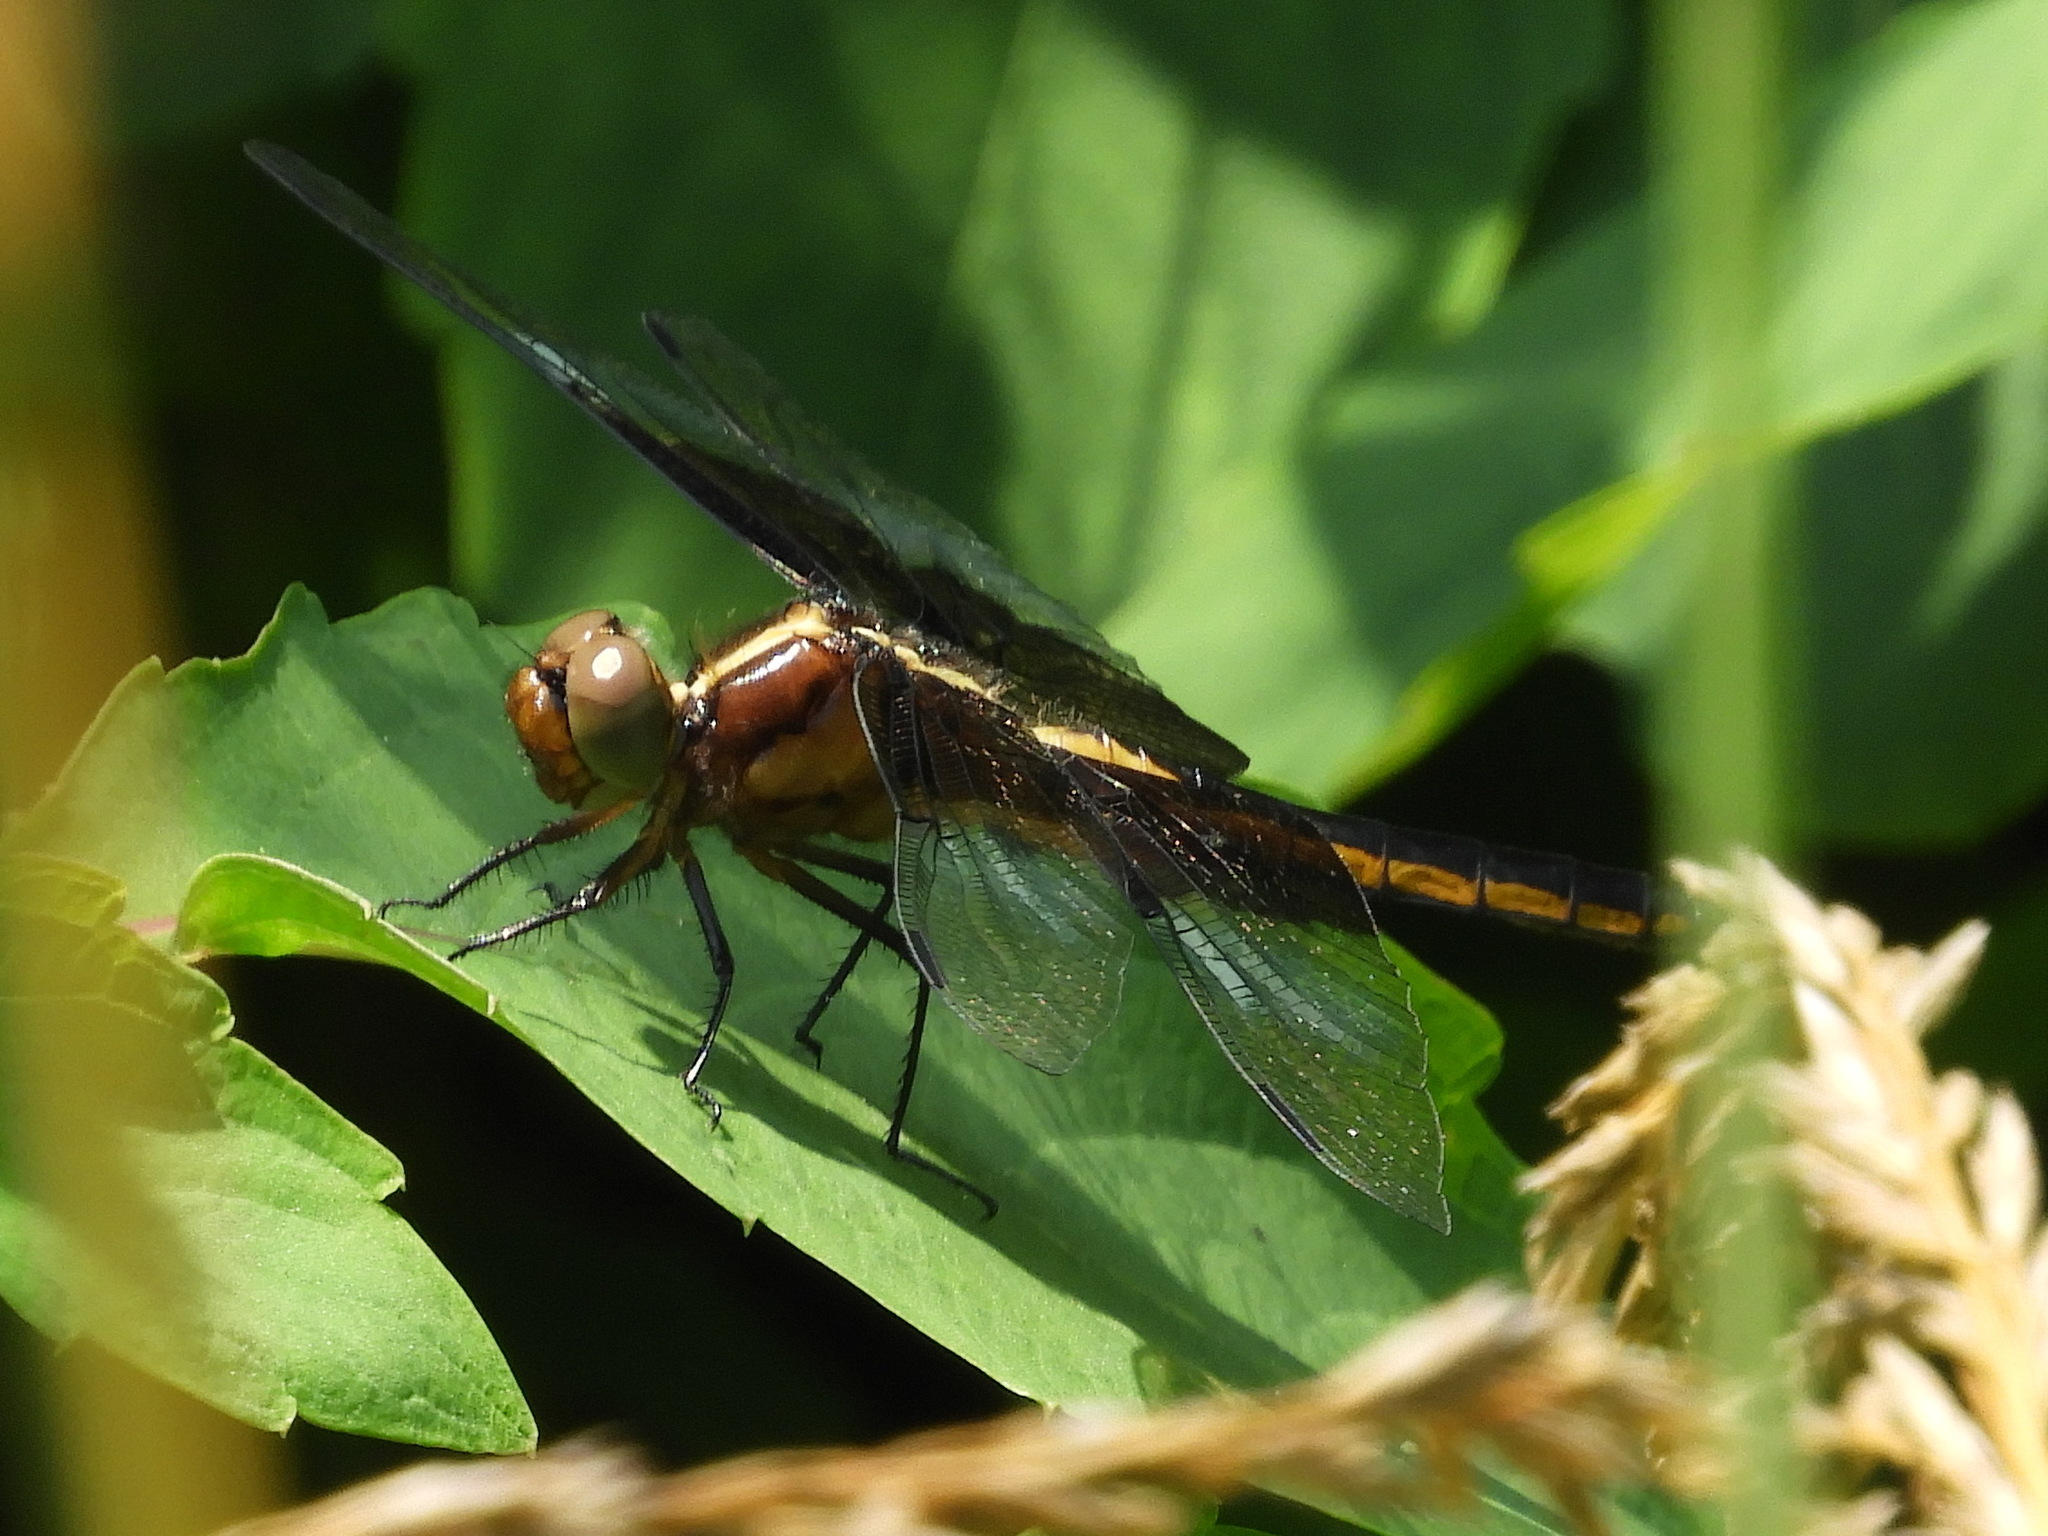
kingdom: Animalia
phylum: Arthropoda
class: Insecta
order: Odonata
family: Libellulidae
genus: Libellula
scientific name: Libellula luctuosa
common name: Widow skimmer
